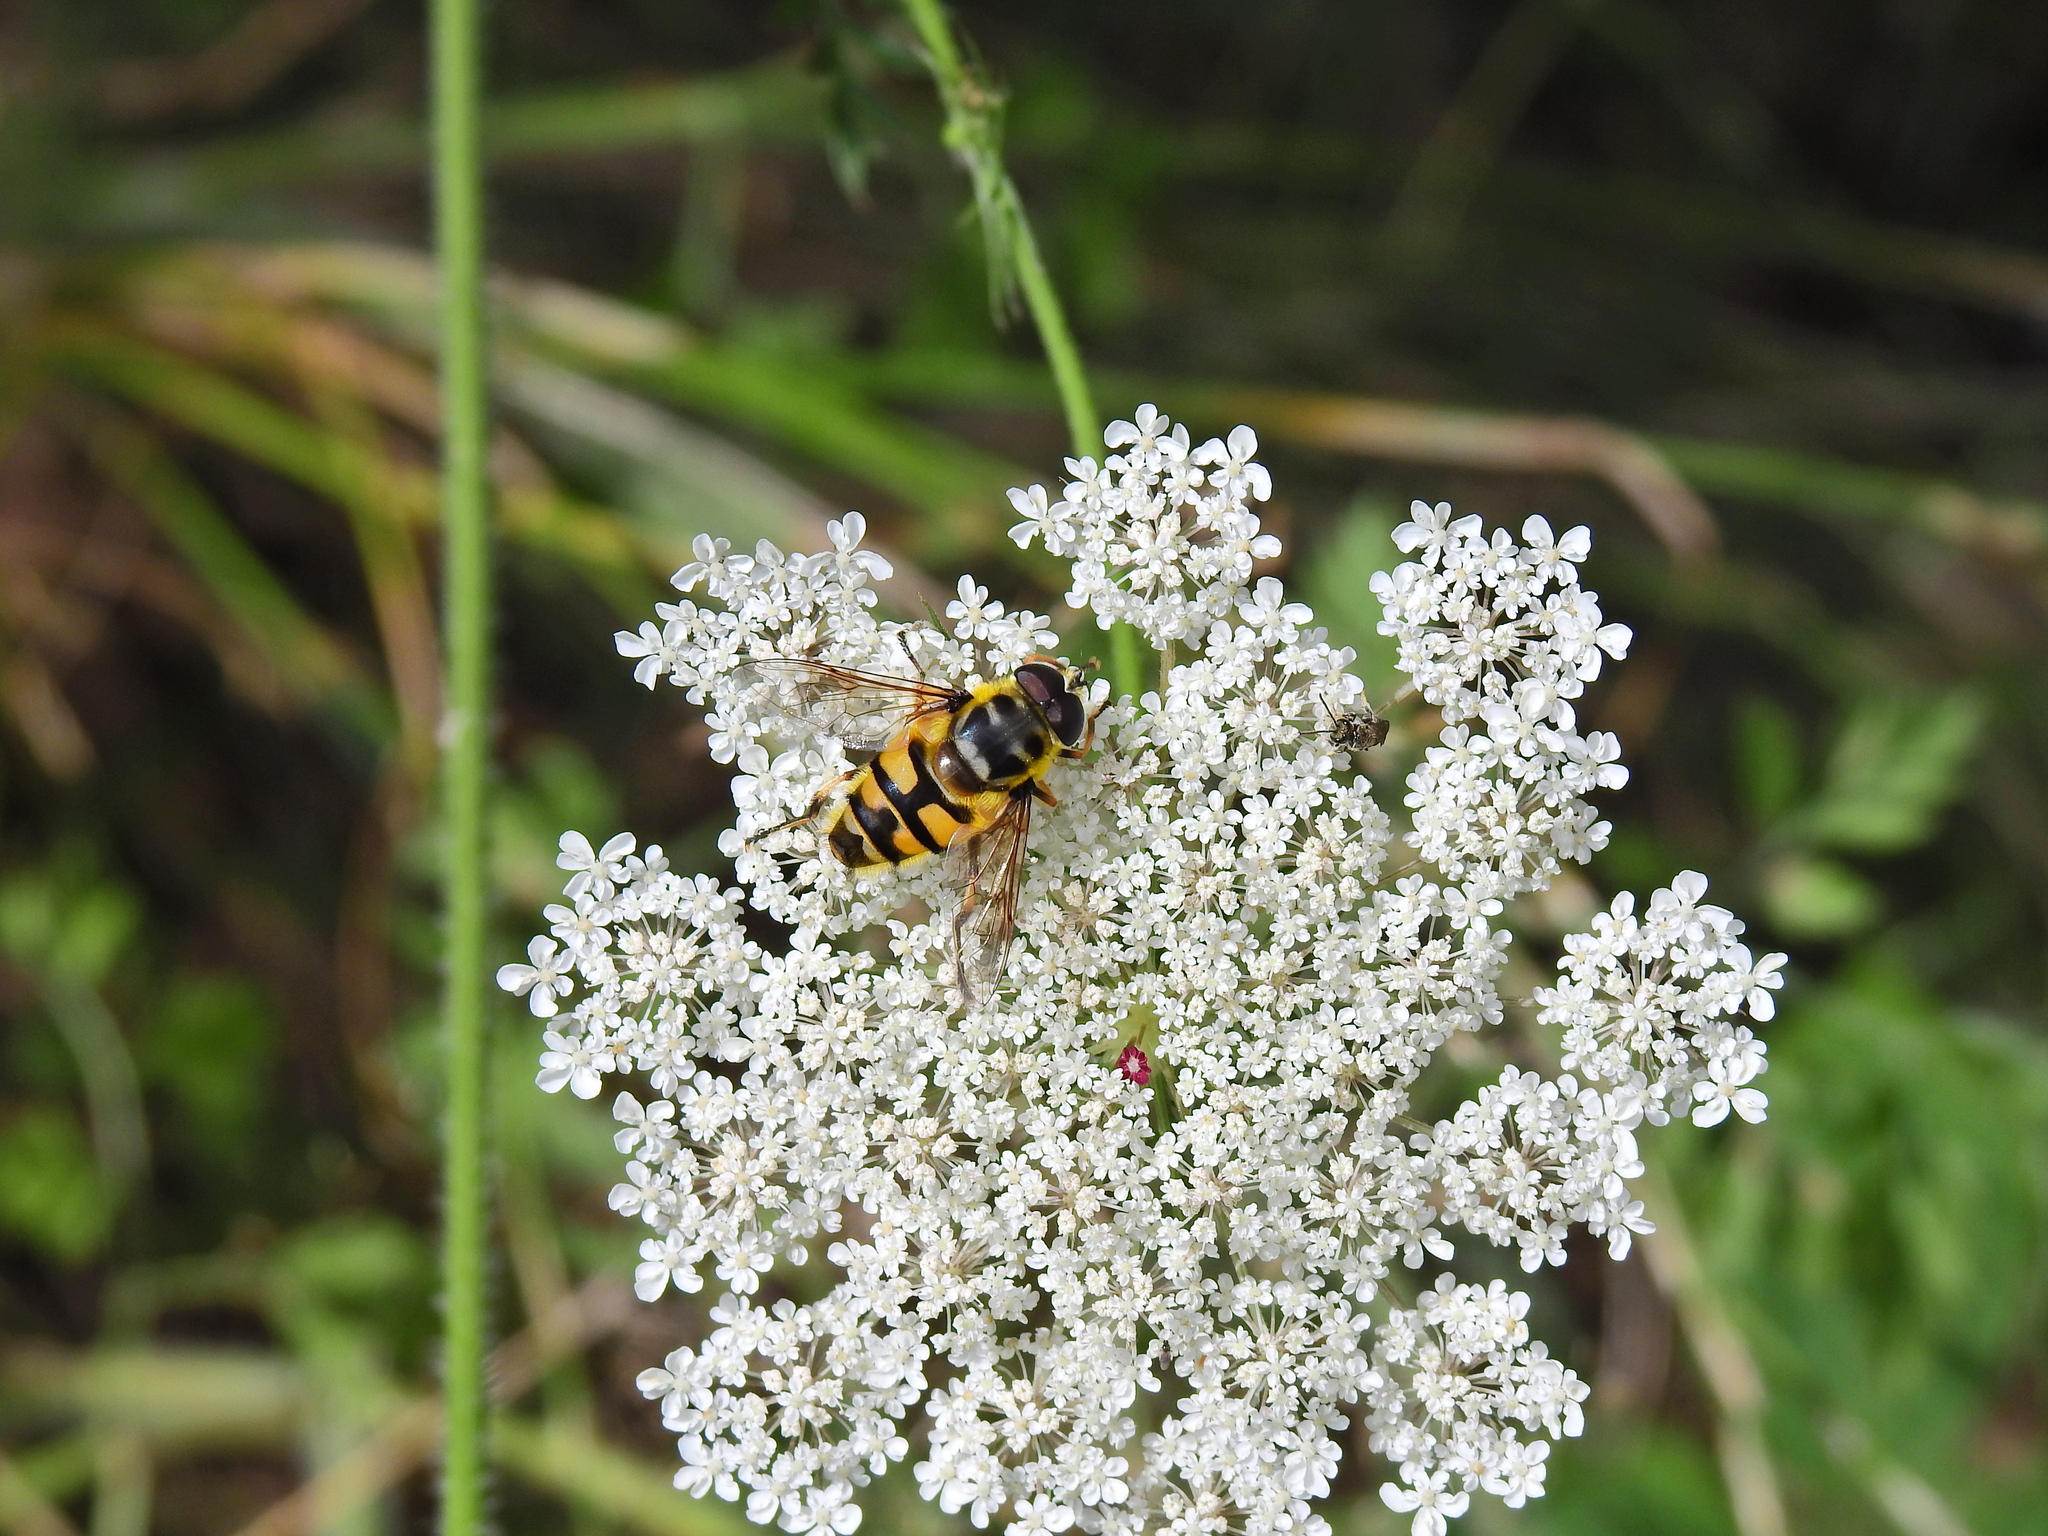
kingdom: Animalia
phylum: Arthropoda
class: Insecta
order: Diptera
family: Syrphidae
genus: Myathropa
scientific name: Myathropa florea
